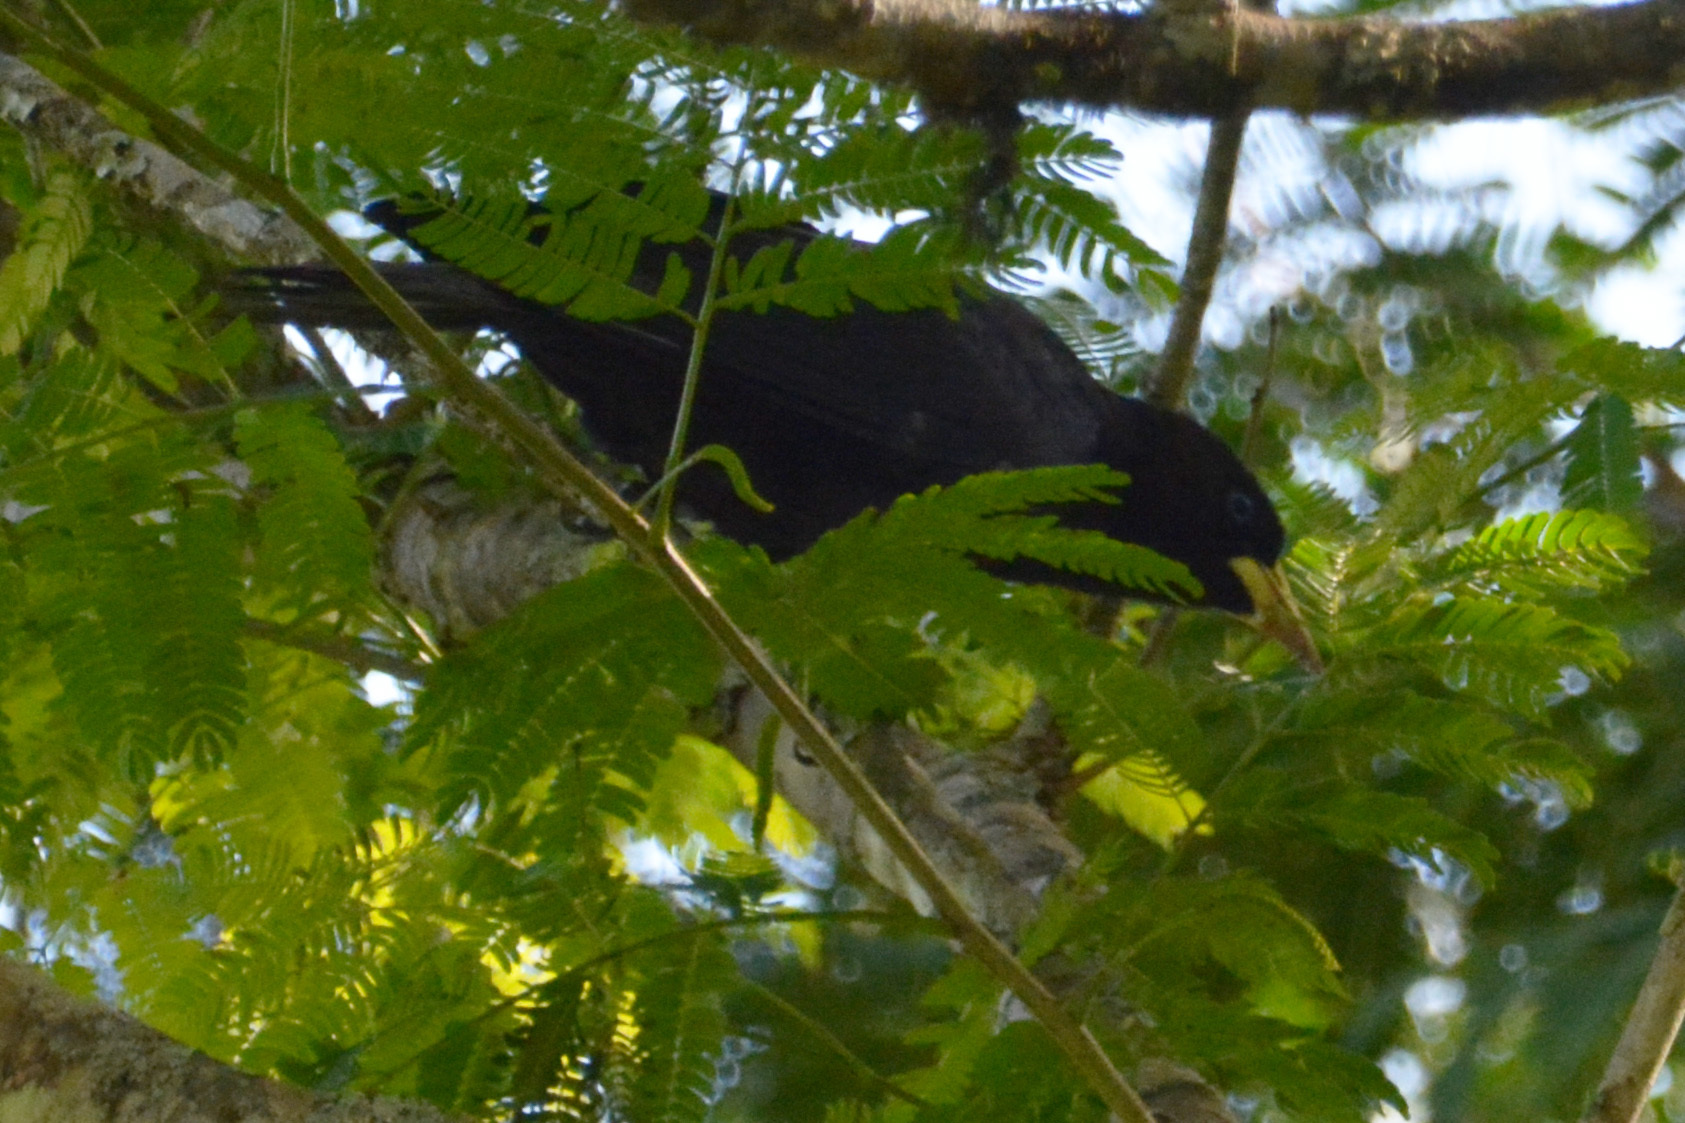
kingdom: Animalia
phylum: Chordata
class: Aves
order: Passeriformes
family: Icteridae
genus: Cacicus
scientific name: Cacicus haemorrhous
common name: Red-rumped cacique
